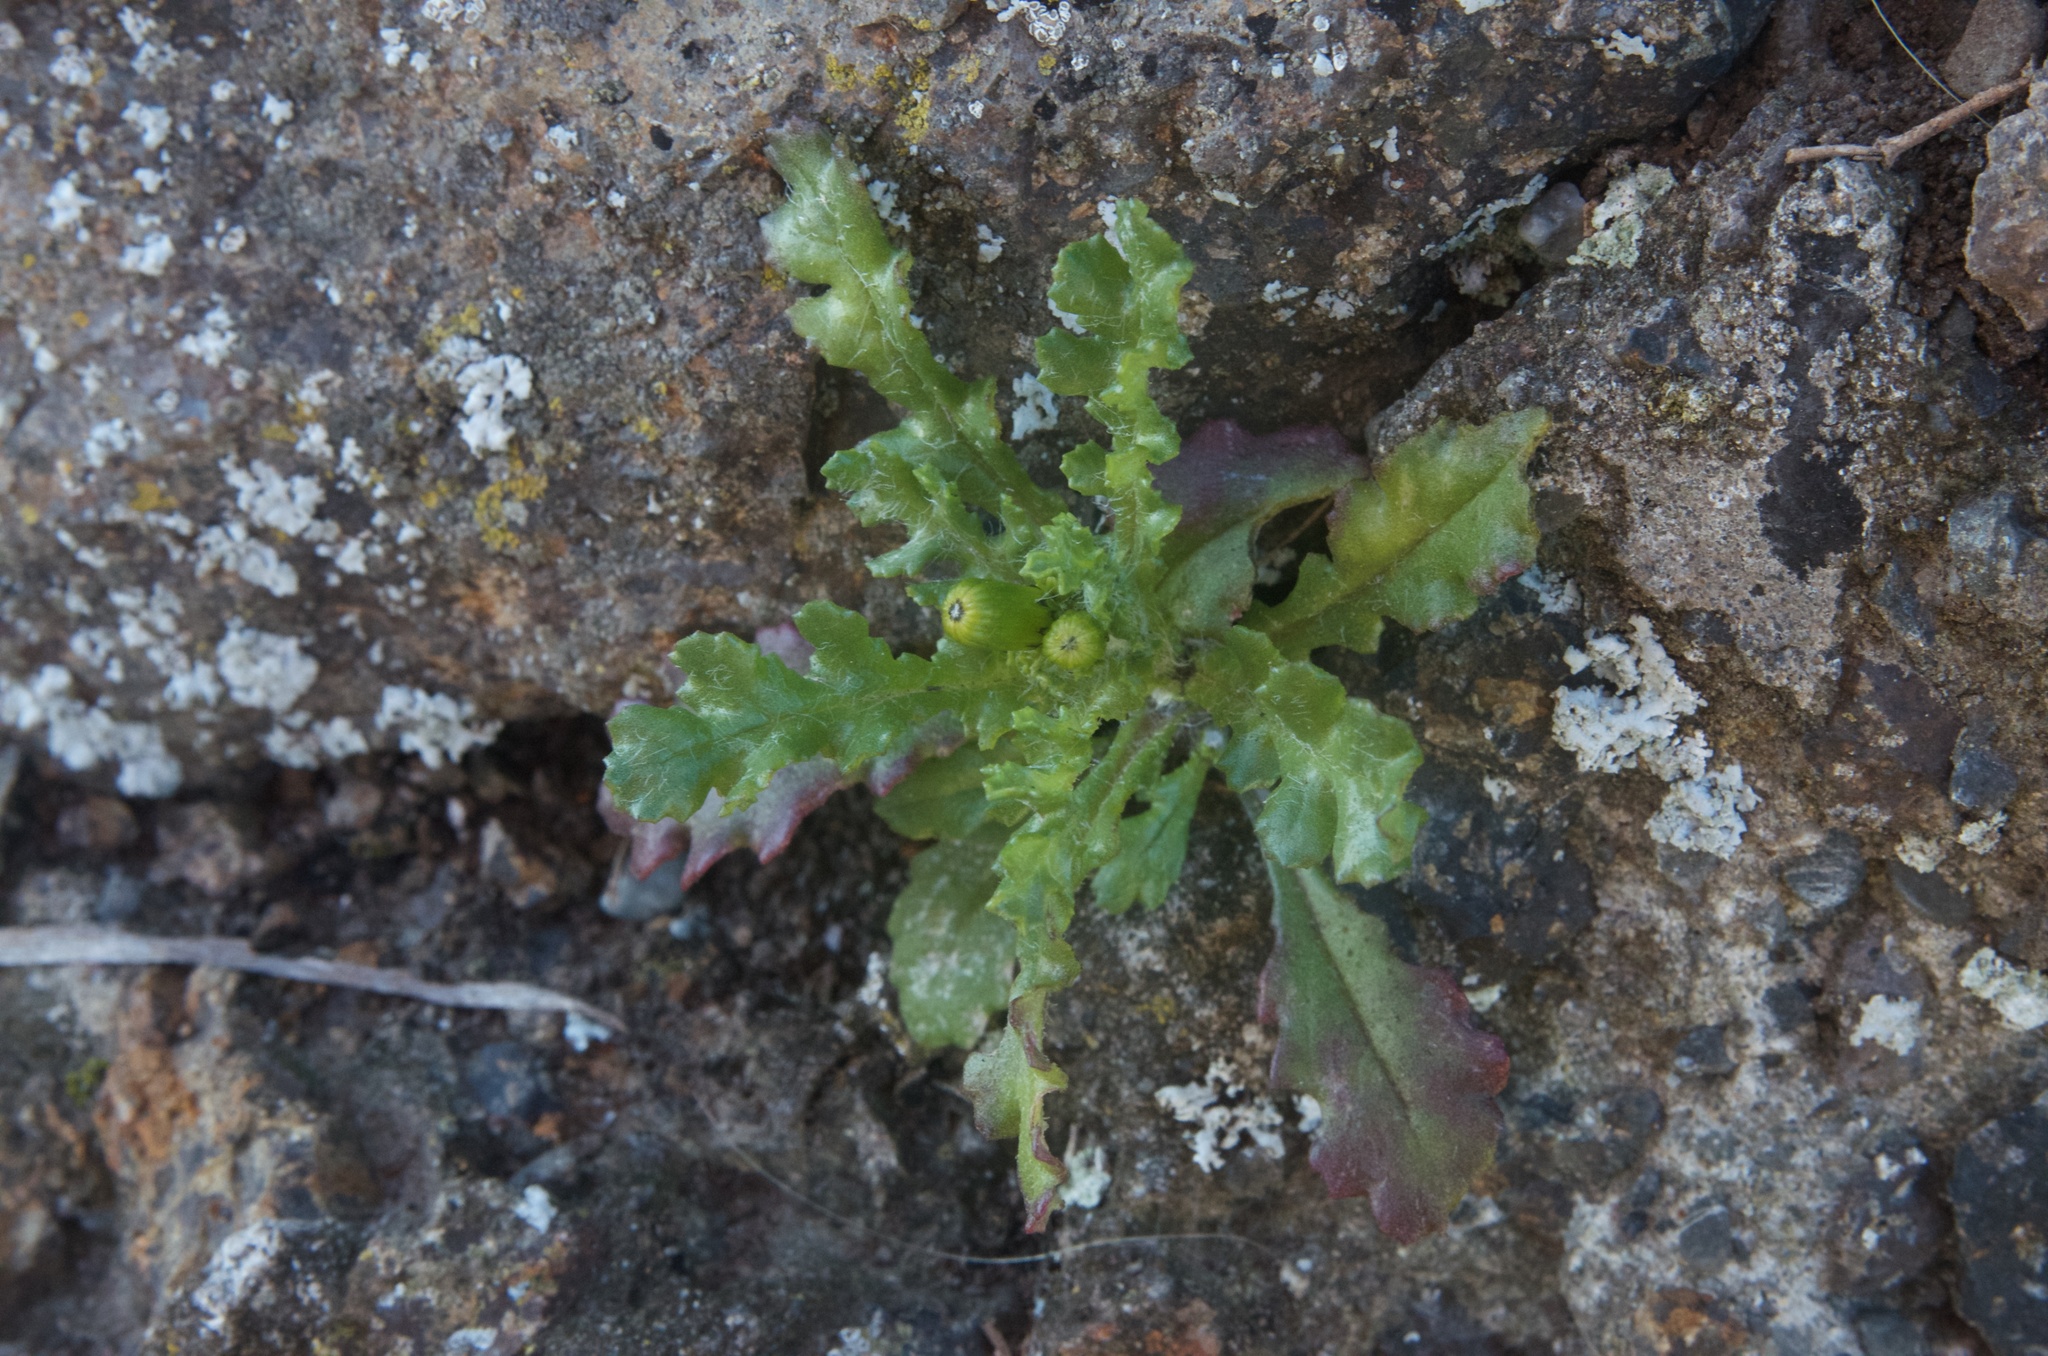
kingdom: Plantae
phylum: Tracheophyta
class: Magnoliopsida
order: Asterales
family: Asteraceae
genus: Senecio
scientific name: Senecio vulgaris
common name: Old-man-in-the-spring
